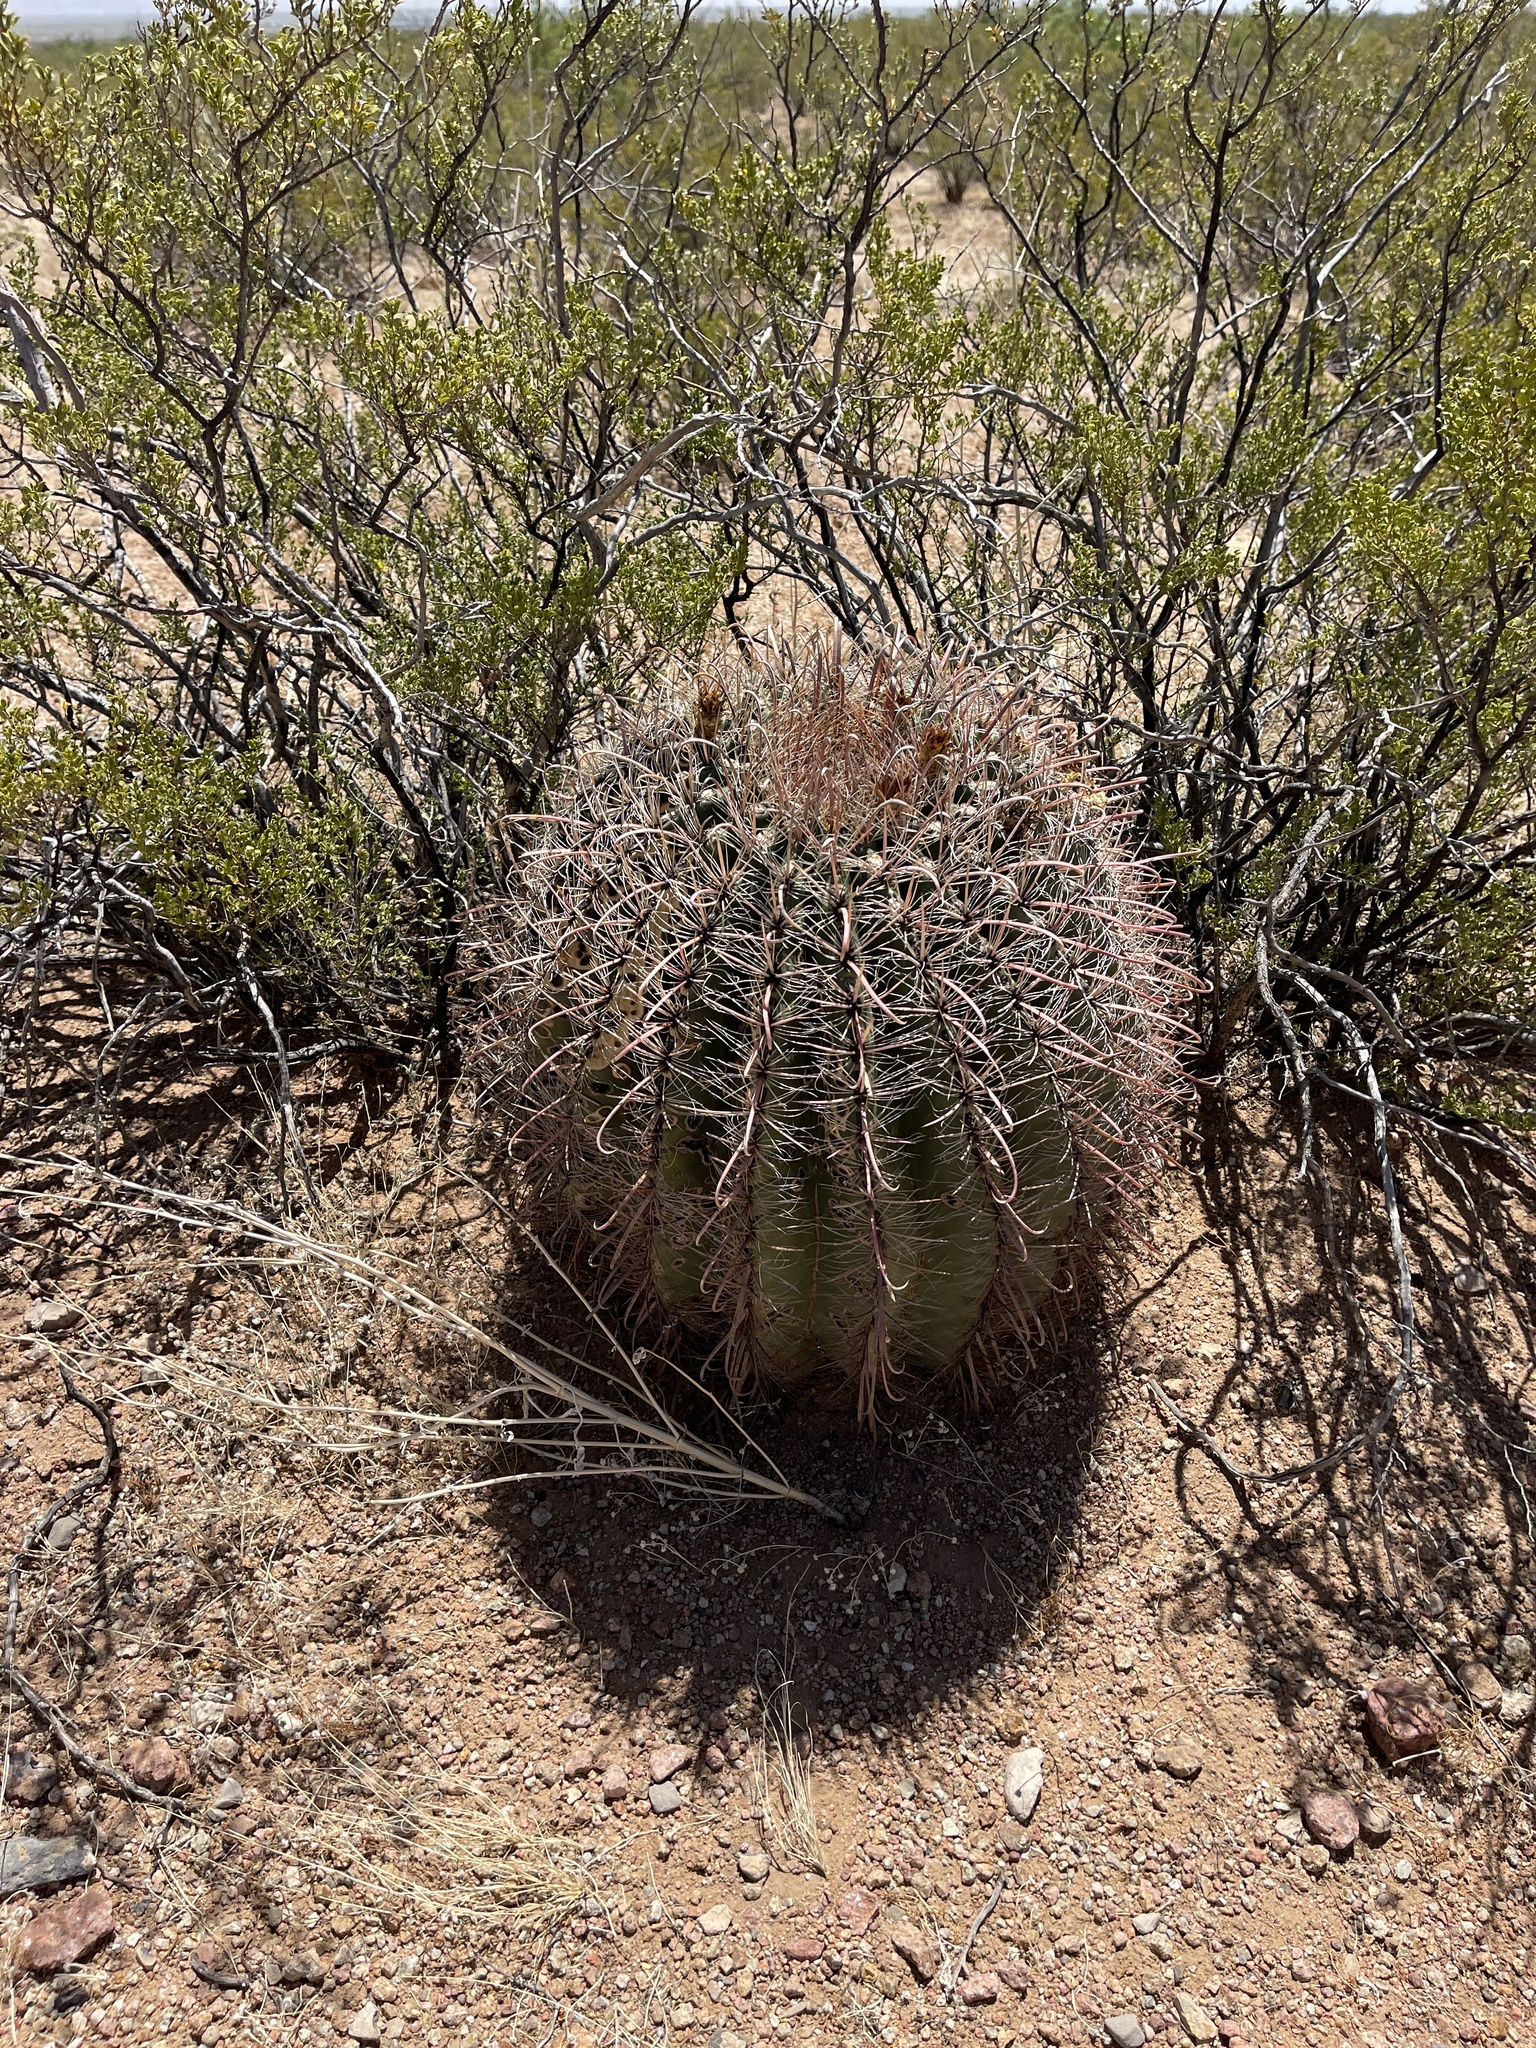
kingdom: Plantae
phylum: Tracheophyta
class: Magnoliopsida
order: Caryophyllales
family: Cactaceae
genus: Ferocactus
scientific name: Ferocactus wislizeni
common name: Candy barrel cactus
